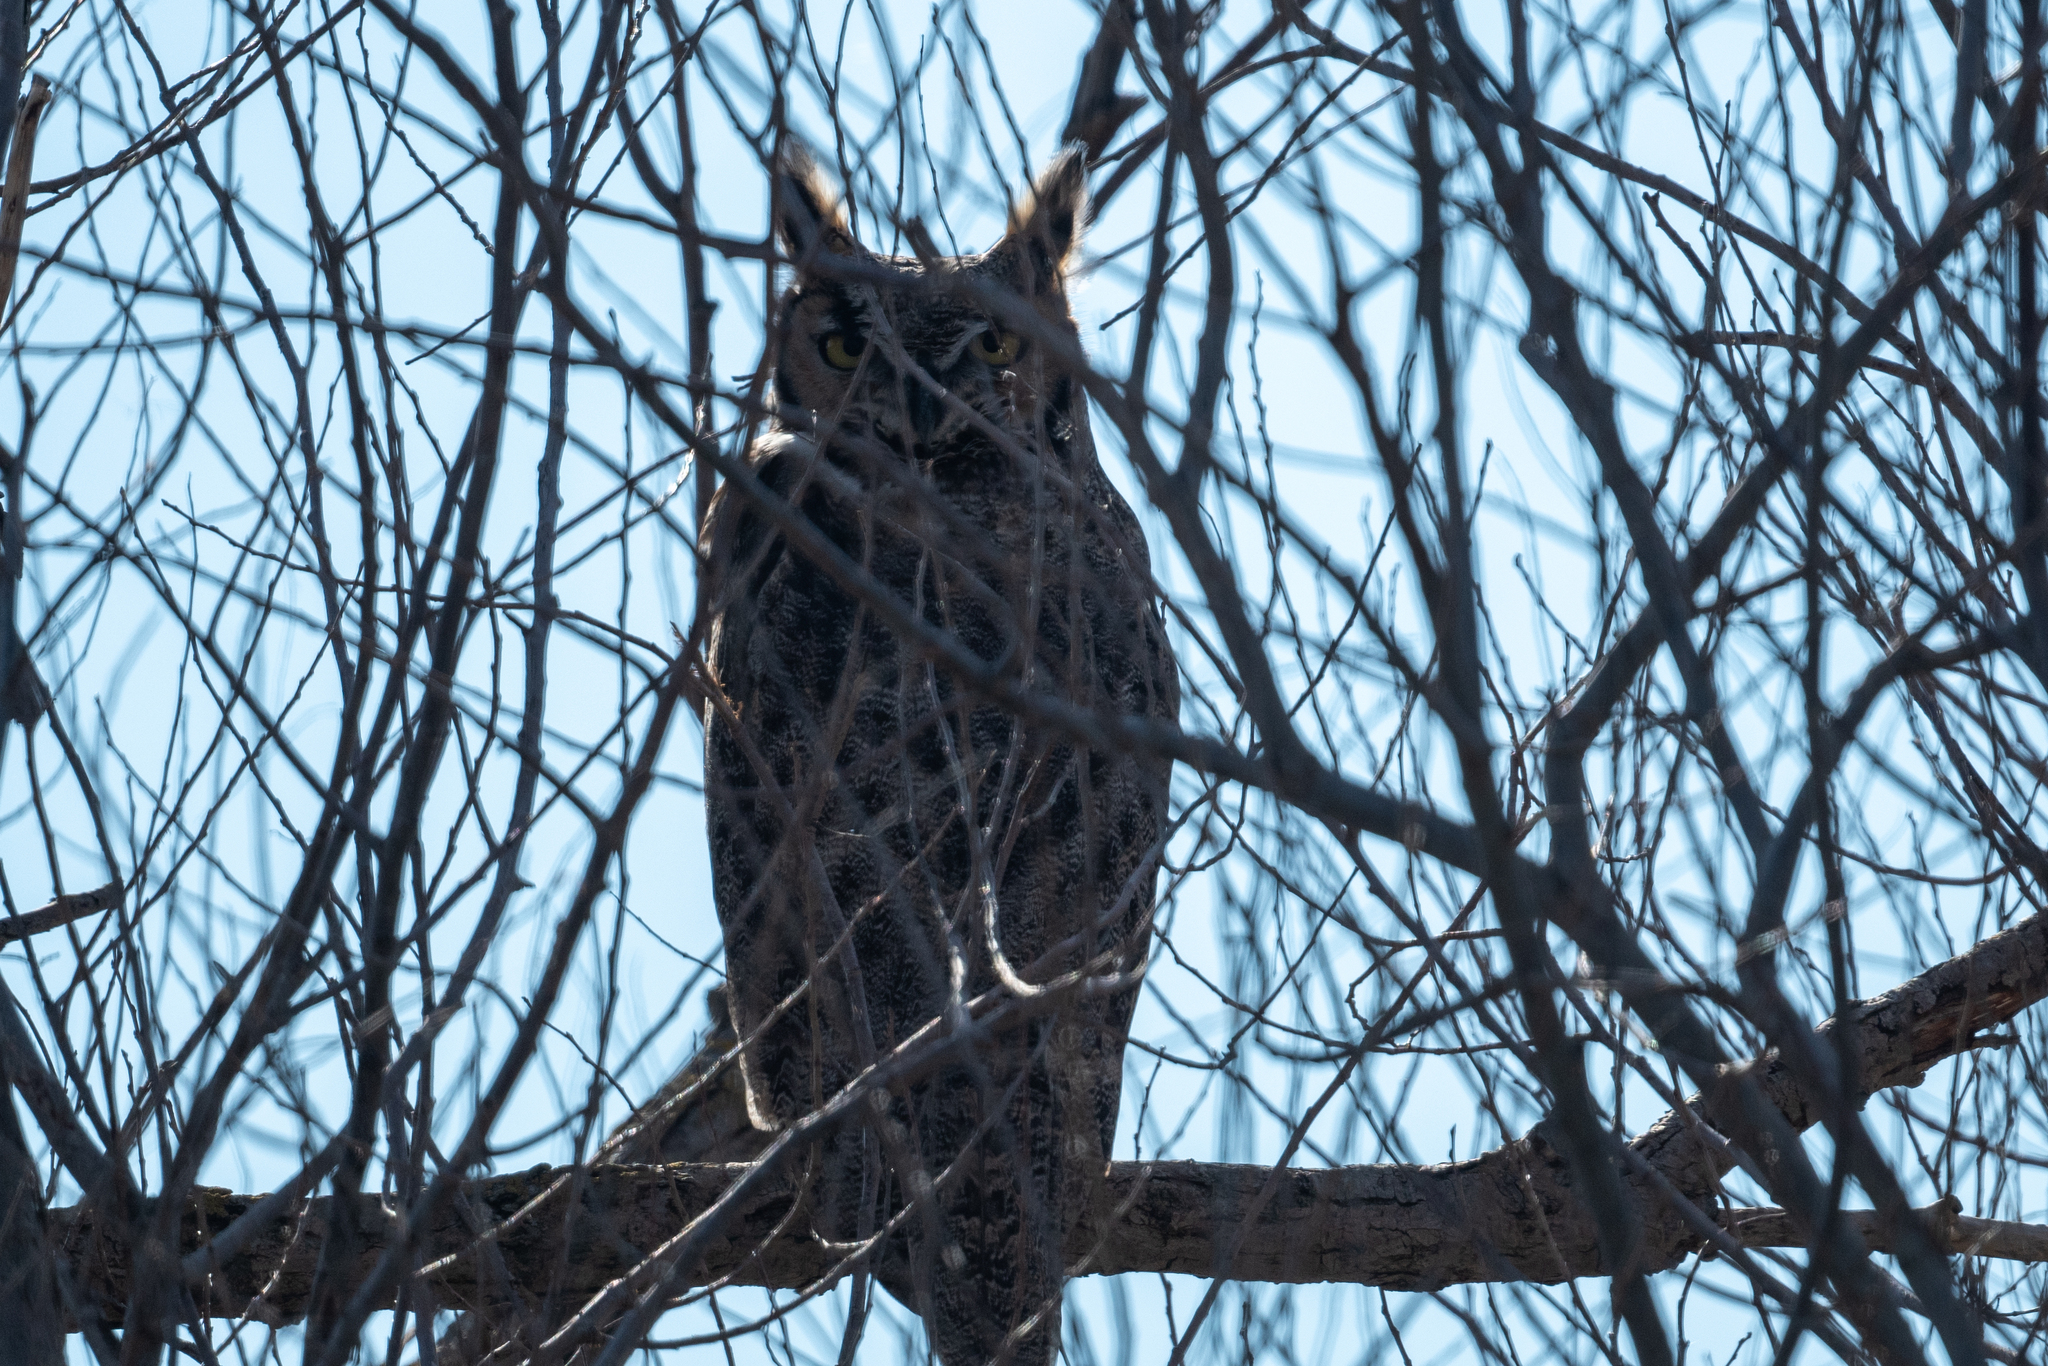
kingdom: Animalia
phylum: Chordata
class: Aves
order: Strigiformes
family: Strigidae
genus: Bubo
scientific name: Bubo virginianus
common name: Great horned owl
